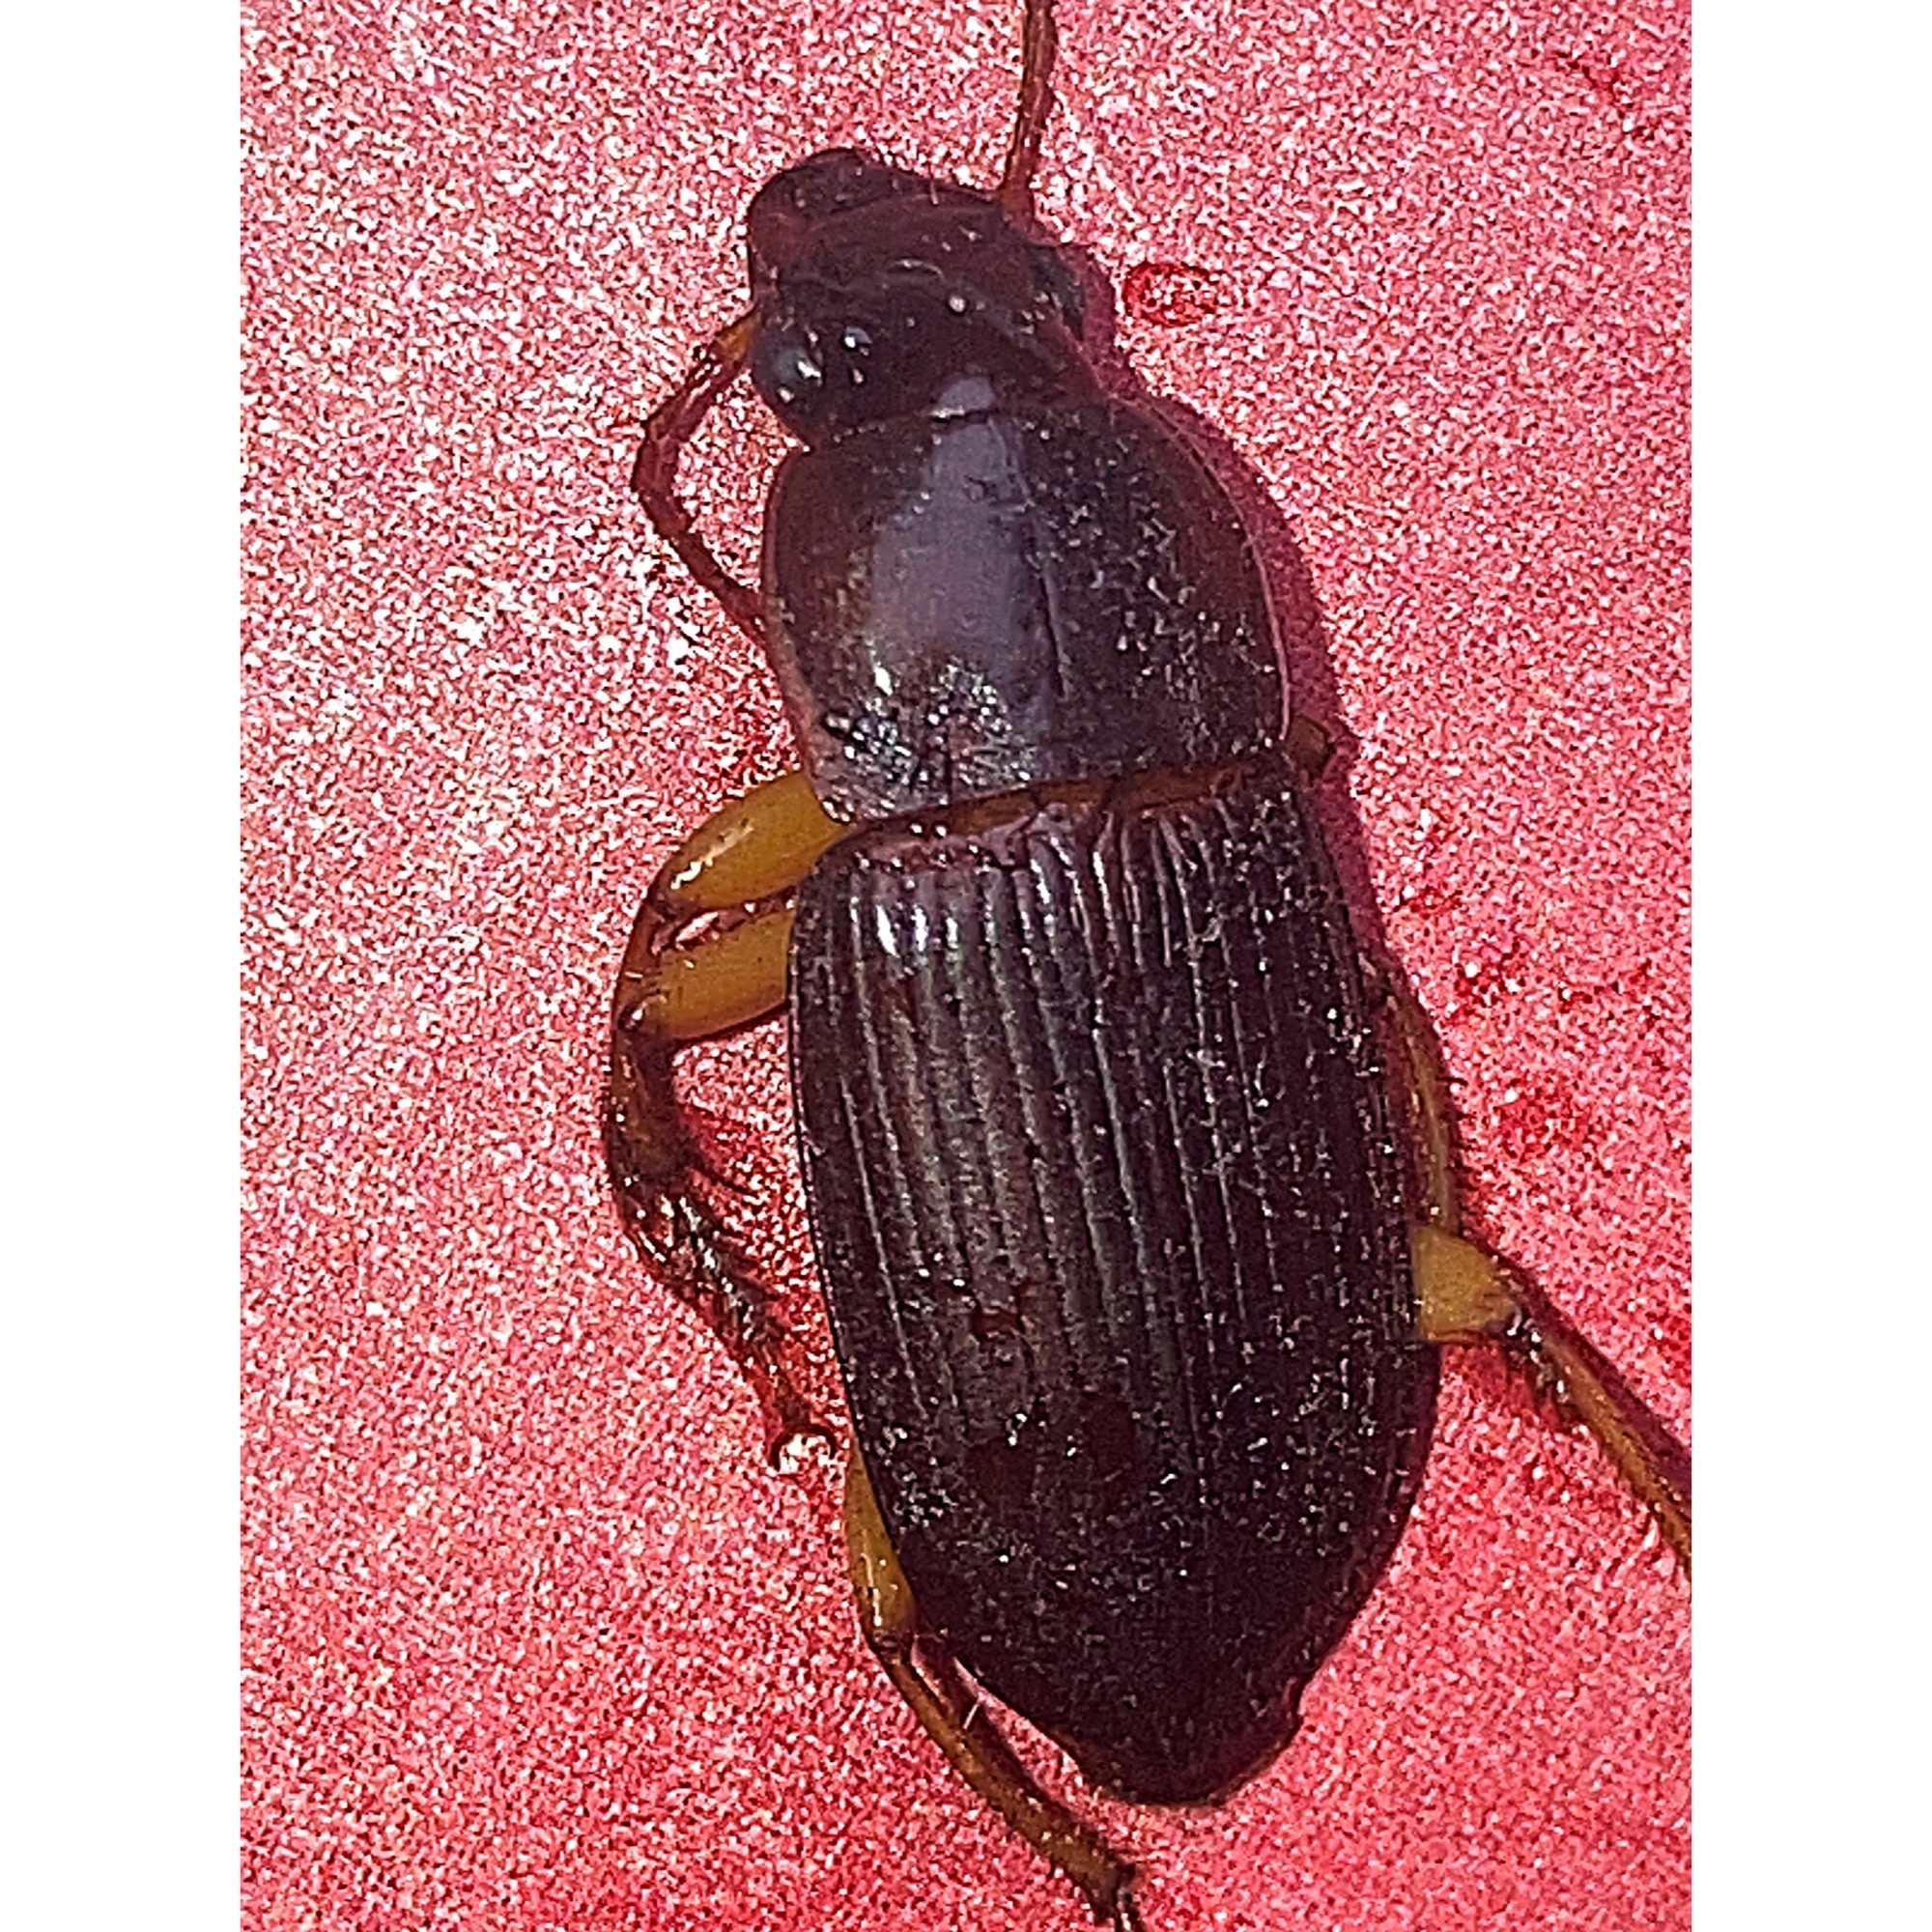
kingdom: Animalia
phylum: Arthropoda
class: Insecta
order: Coleoptera
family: Carabidae
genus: Harpalus
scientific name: Harpalus pensylvanicus
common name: Pennsylvania dingy ground beetle
